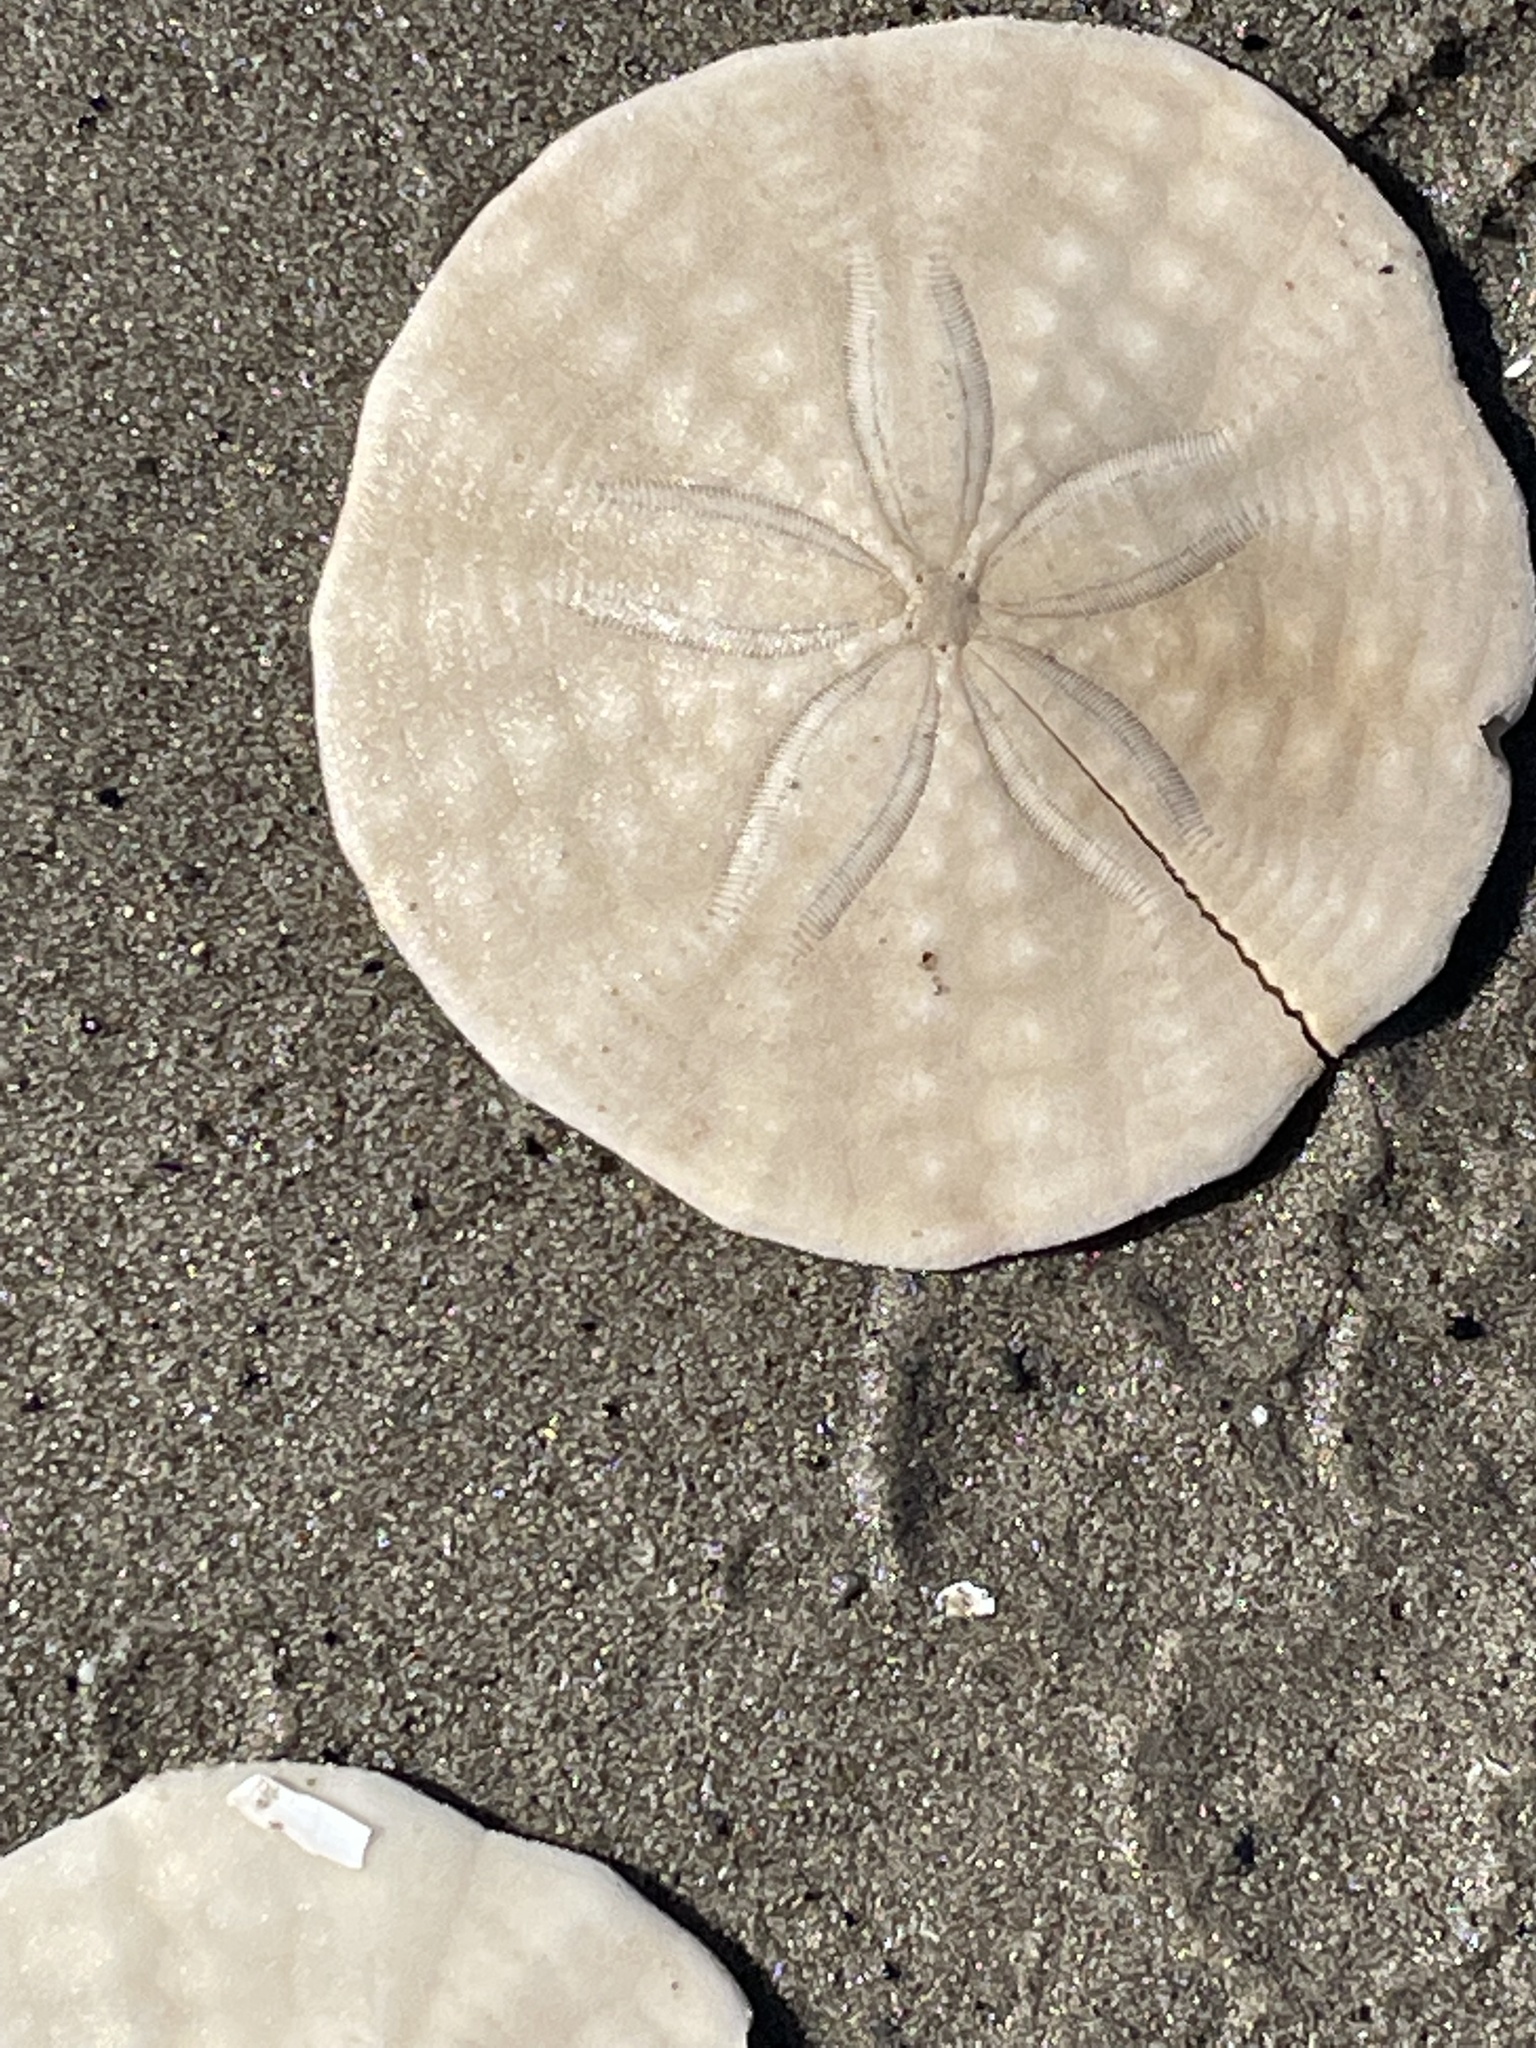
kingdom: Animalia
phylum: Echinodermata
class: Echinoidea
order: Echinolampadacea
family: Echinarachniidae
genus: Echinarachnius
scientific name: Echinarachnius parma
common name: Common sand dollar
